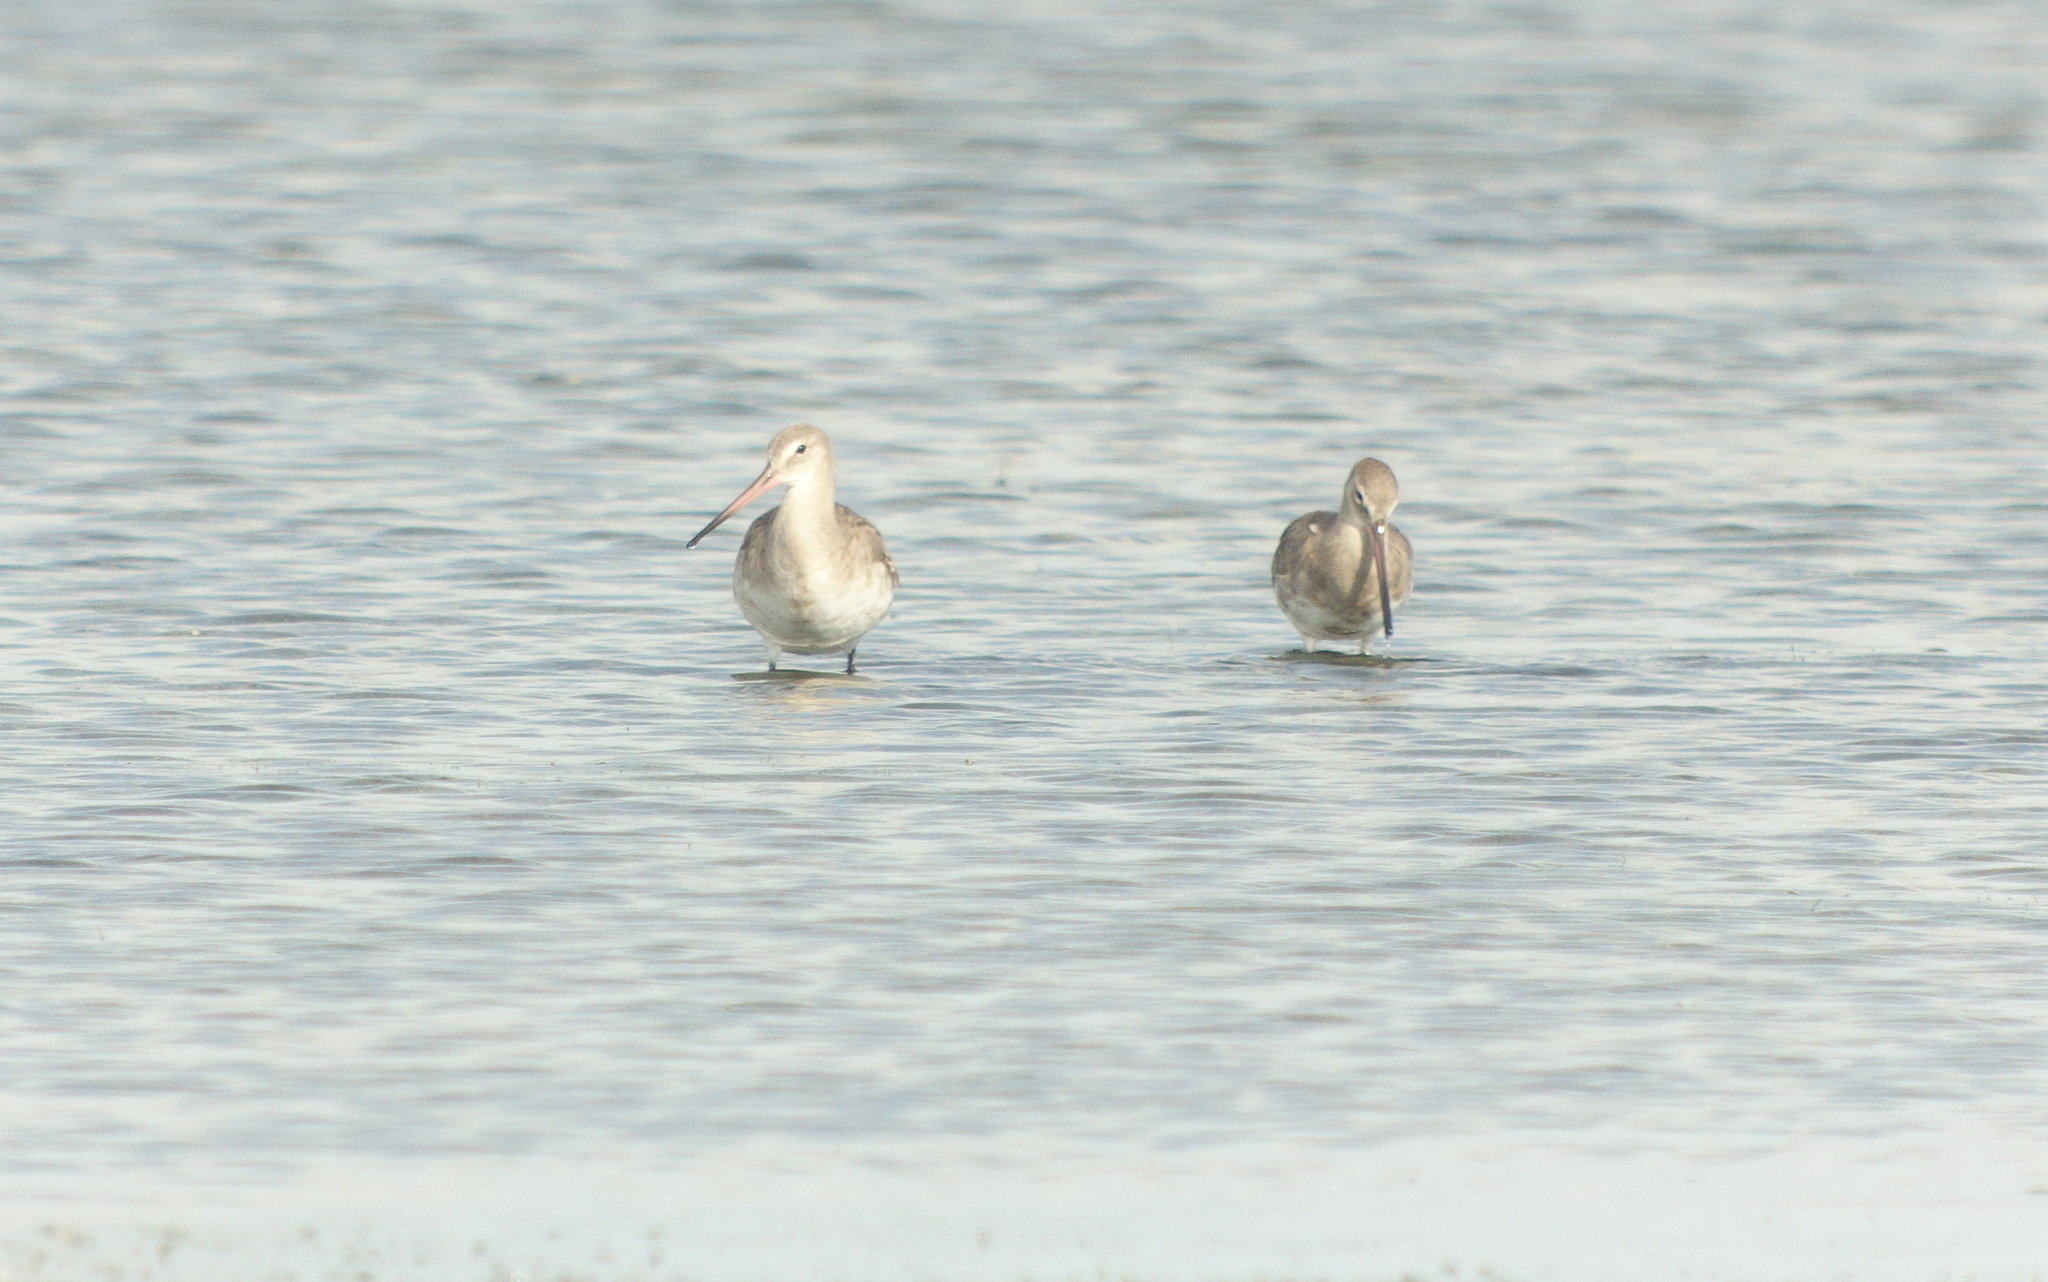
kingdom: Animalia
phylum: Chordata
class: Aves
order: Charadriiformes
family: Scolopacidae
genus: Limosa
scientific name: Limosa limosa
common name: Black-tailed godwit
